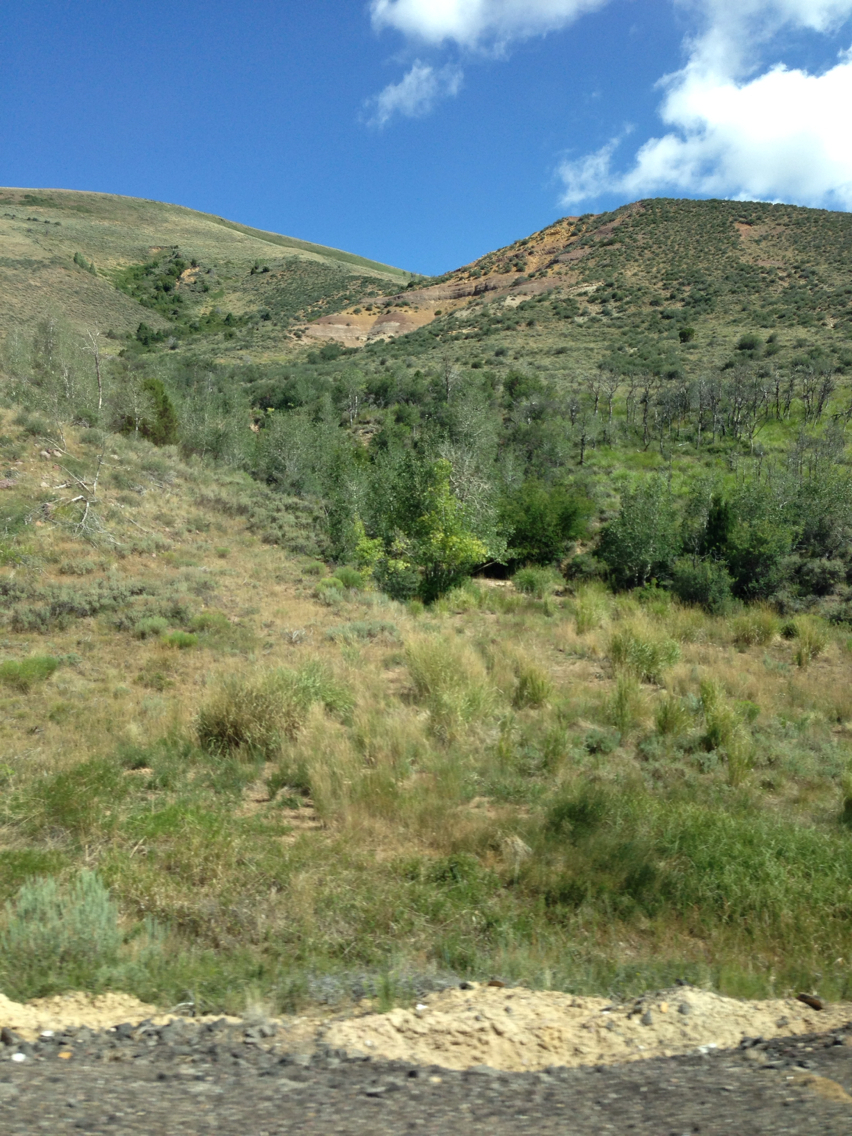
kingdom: Plantae
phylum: Tracheophyta
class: Magnoliopsida
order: Malpighiales
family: Salicaceae
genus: Populus
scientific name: Populus tremuloides
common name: Quaking aspen
